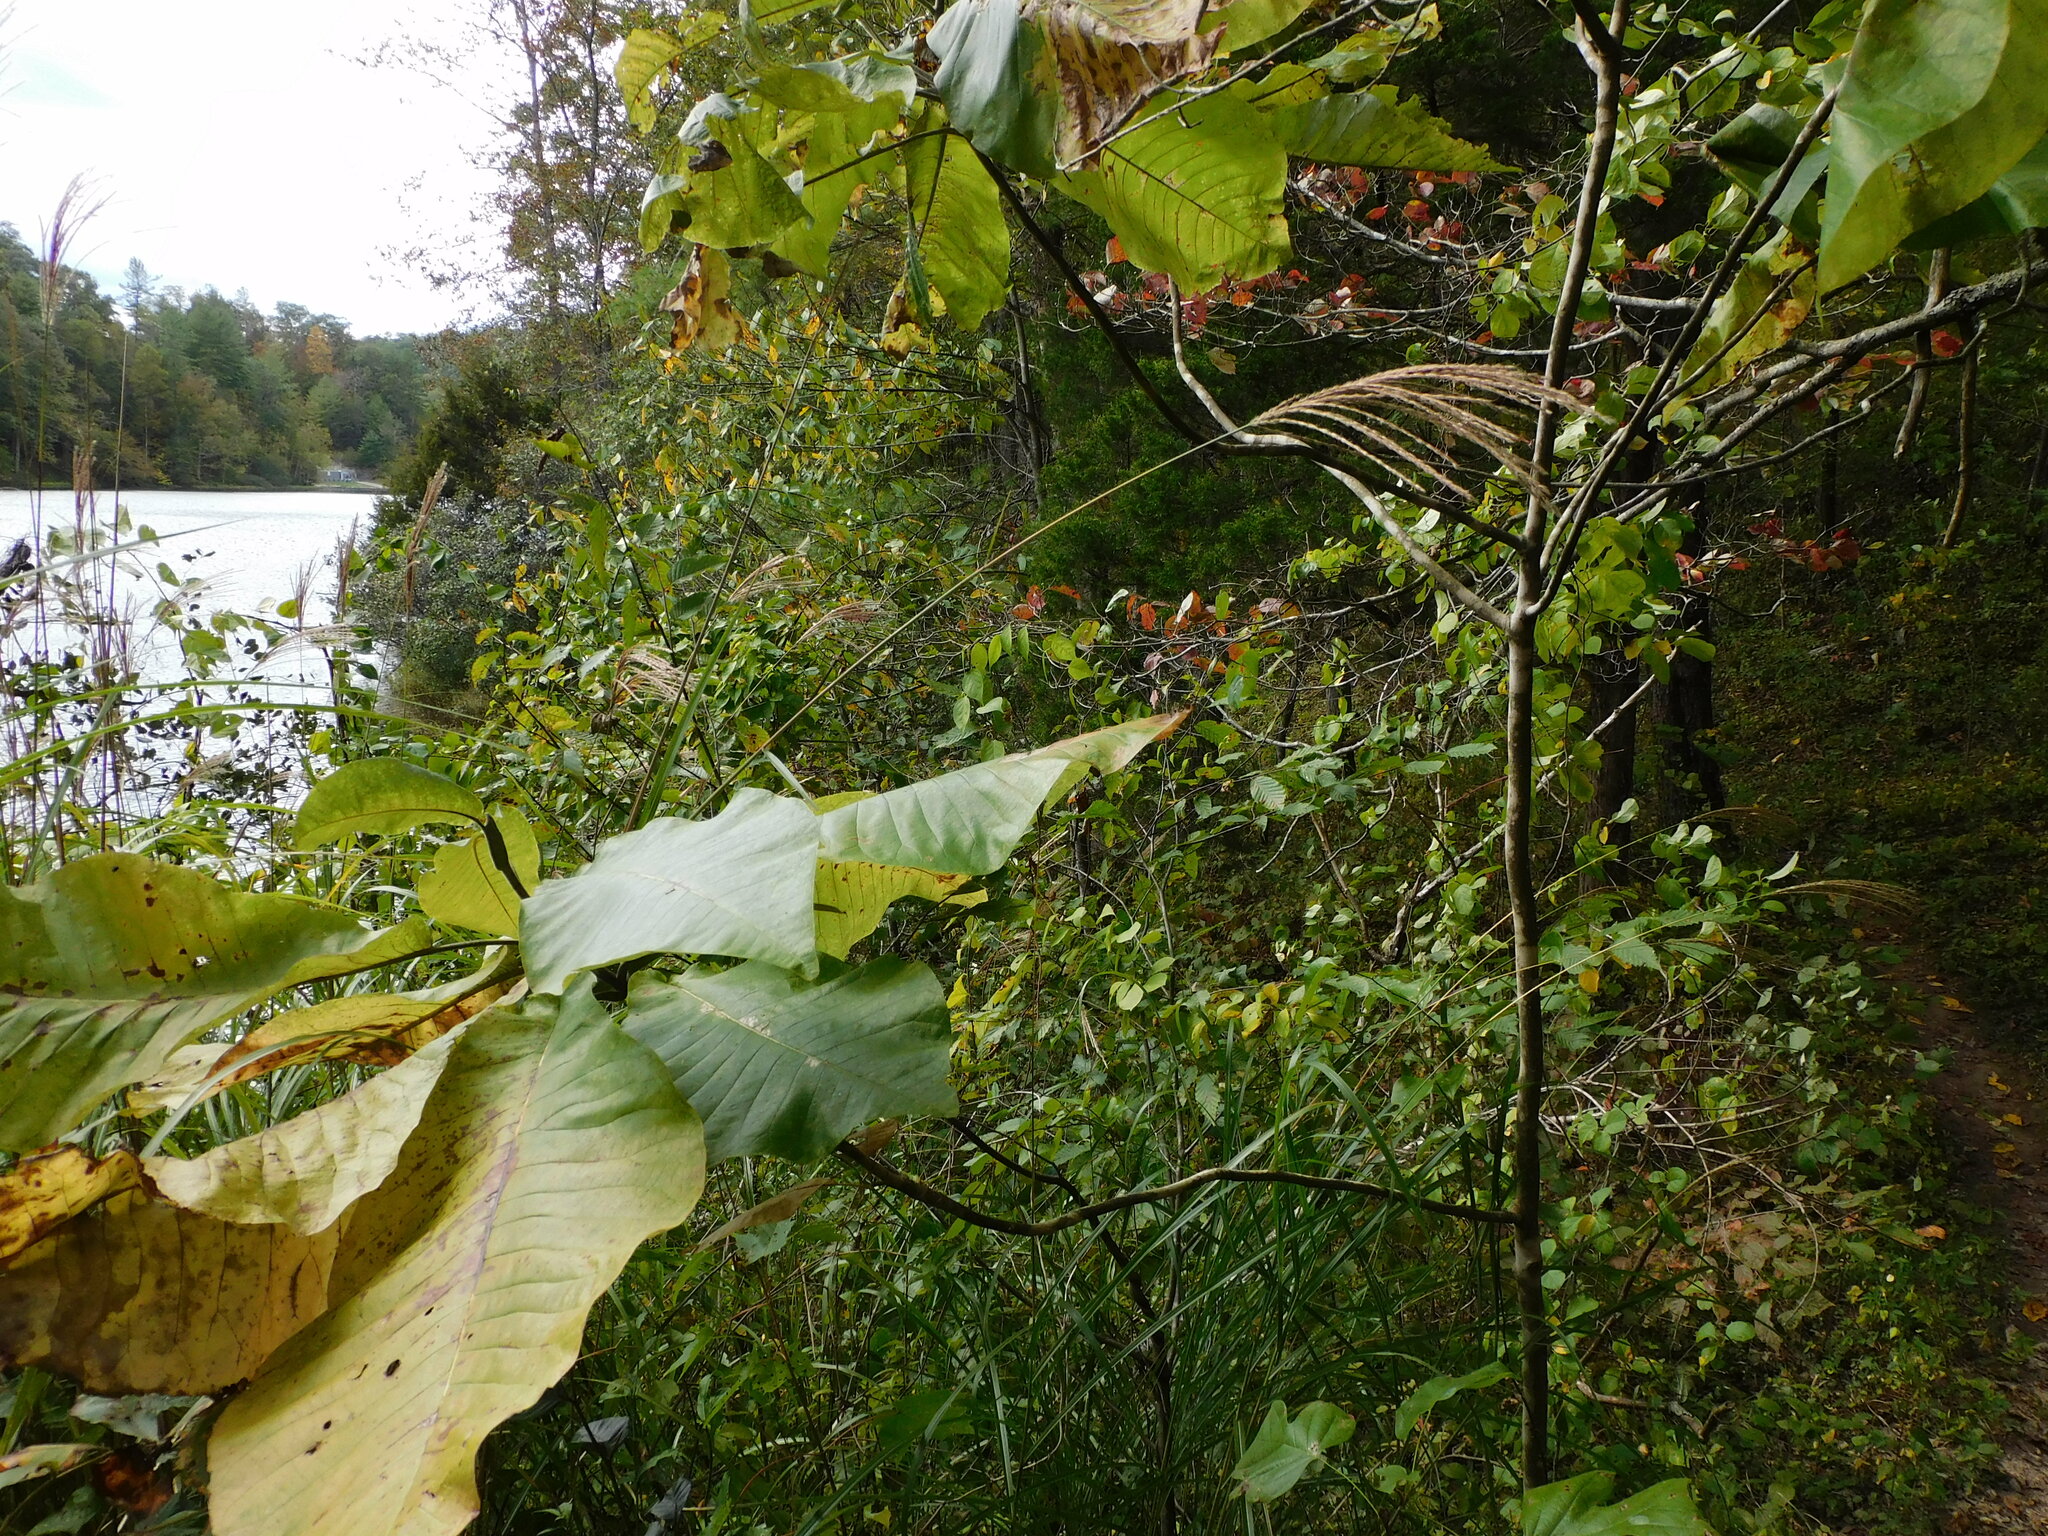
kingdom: Plantae
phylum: Tracheophyta
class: Magnoliopsida
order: Magnoliales
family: Magnoliaceae
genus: Magnolia
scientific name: Magnolia macrophylla
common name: Big-leaf magnolia
